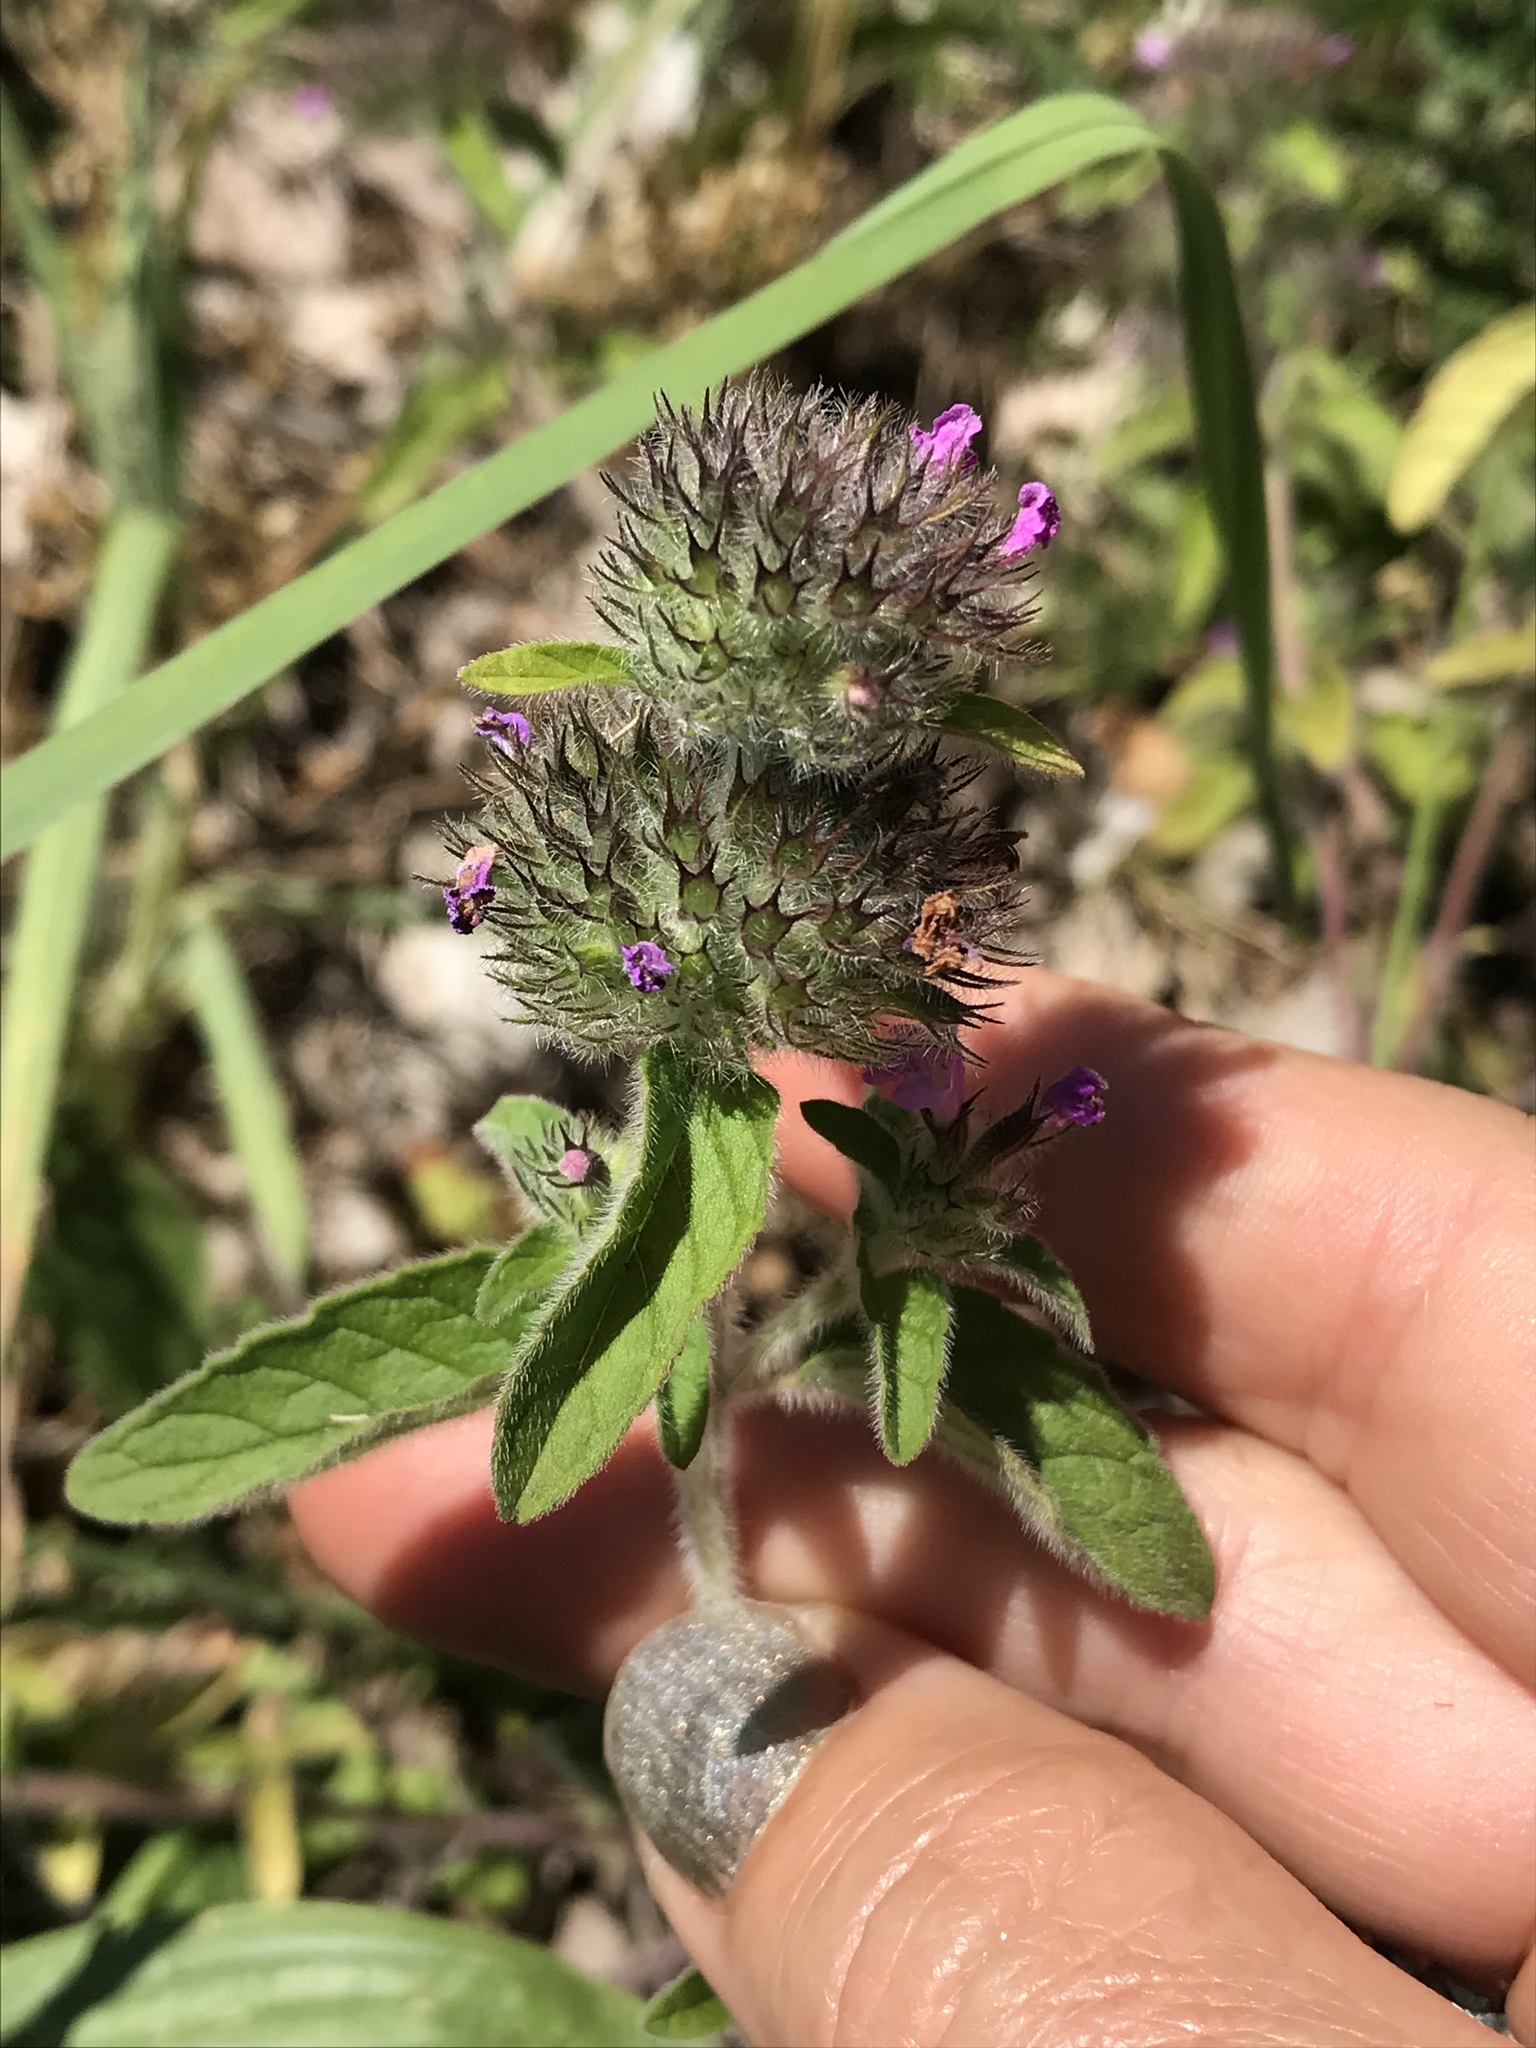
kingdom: Plantae
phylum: Tracheophyta
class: Magnoliopsida
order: Lamiales
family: Lamiaceae
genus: Clinopodium
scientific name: Clinopodium vulgare
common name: Wild basil
